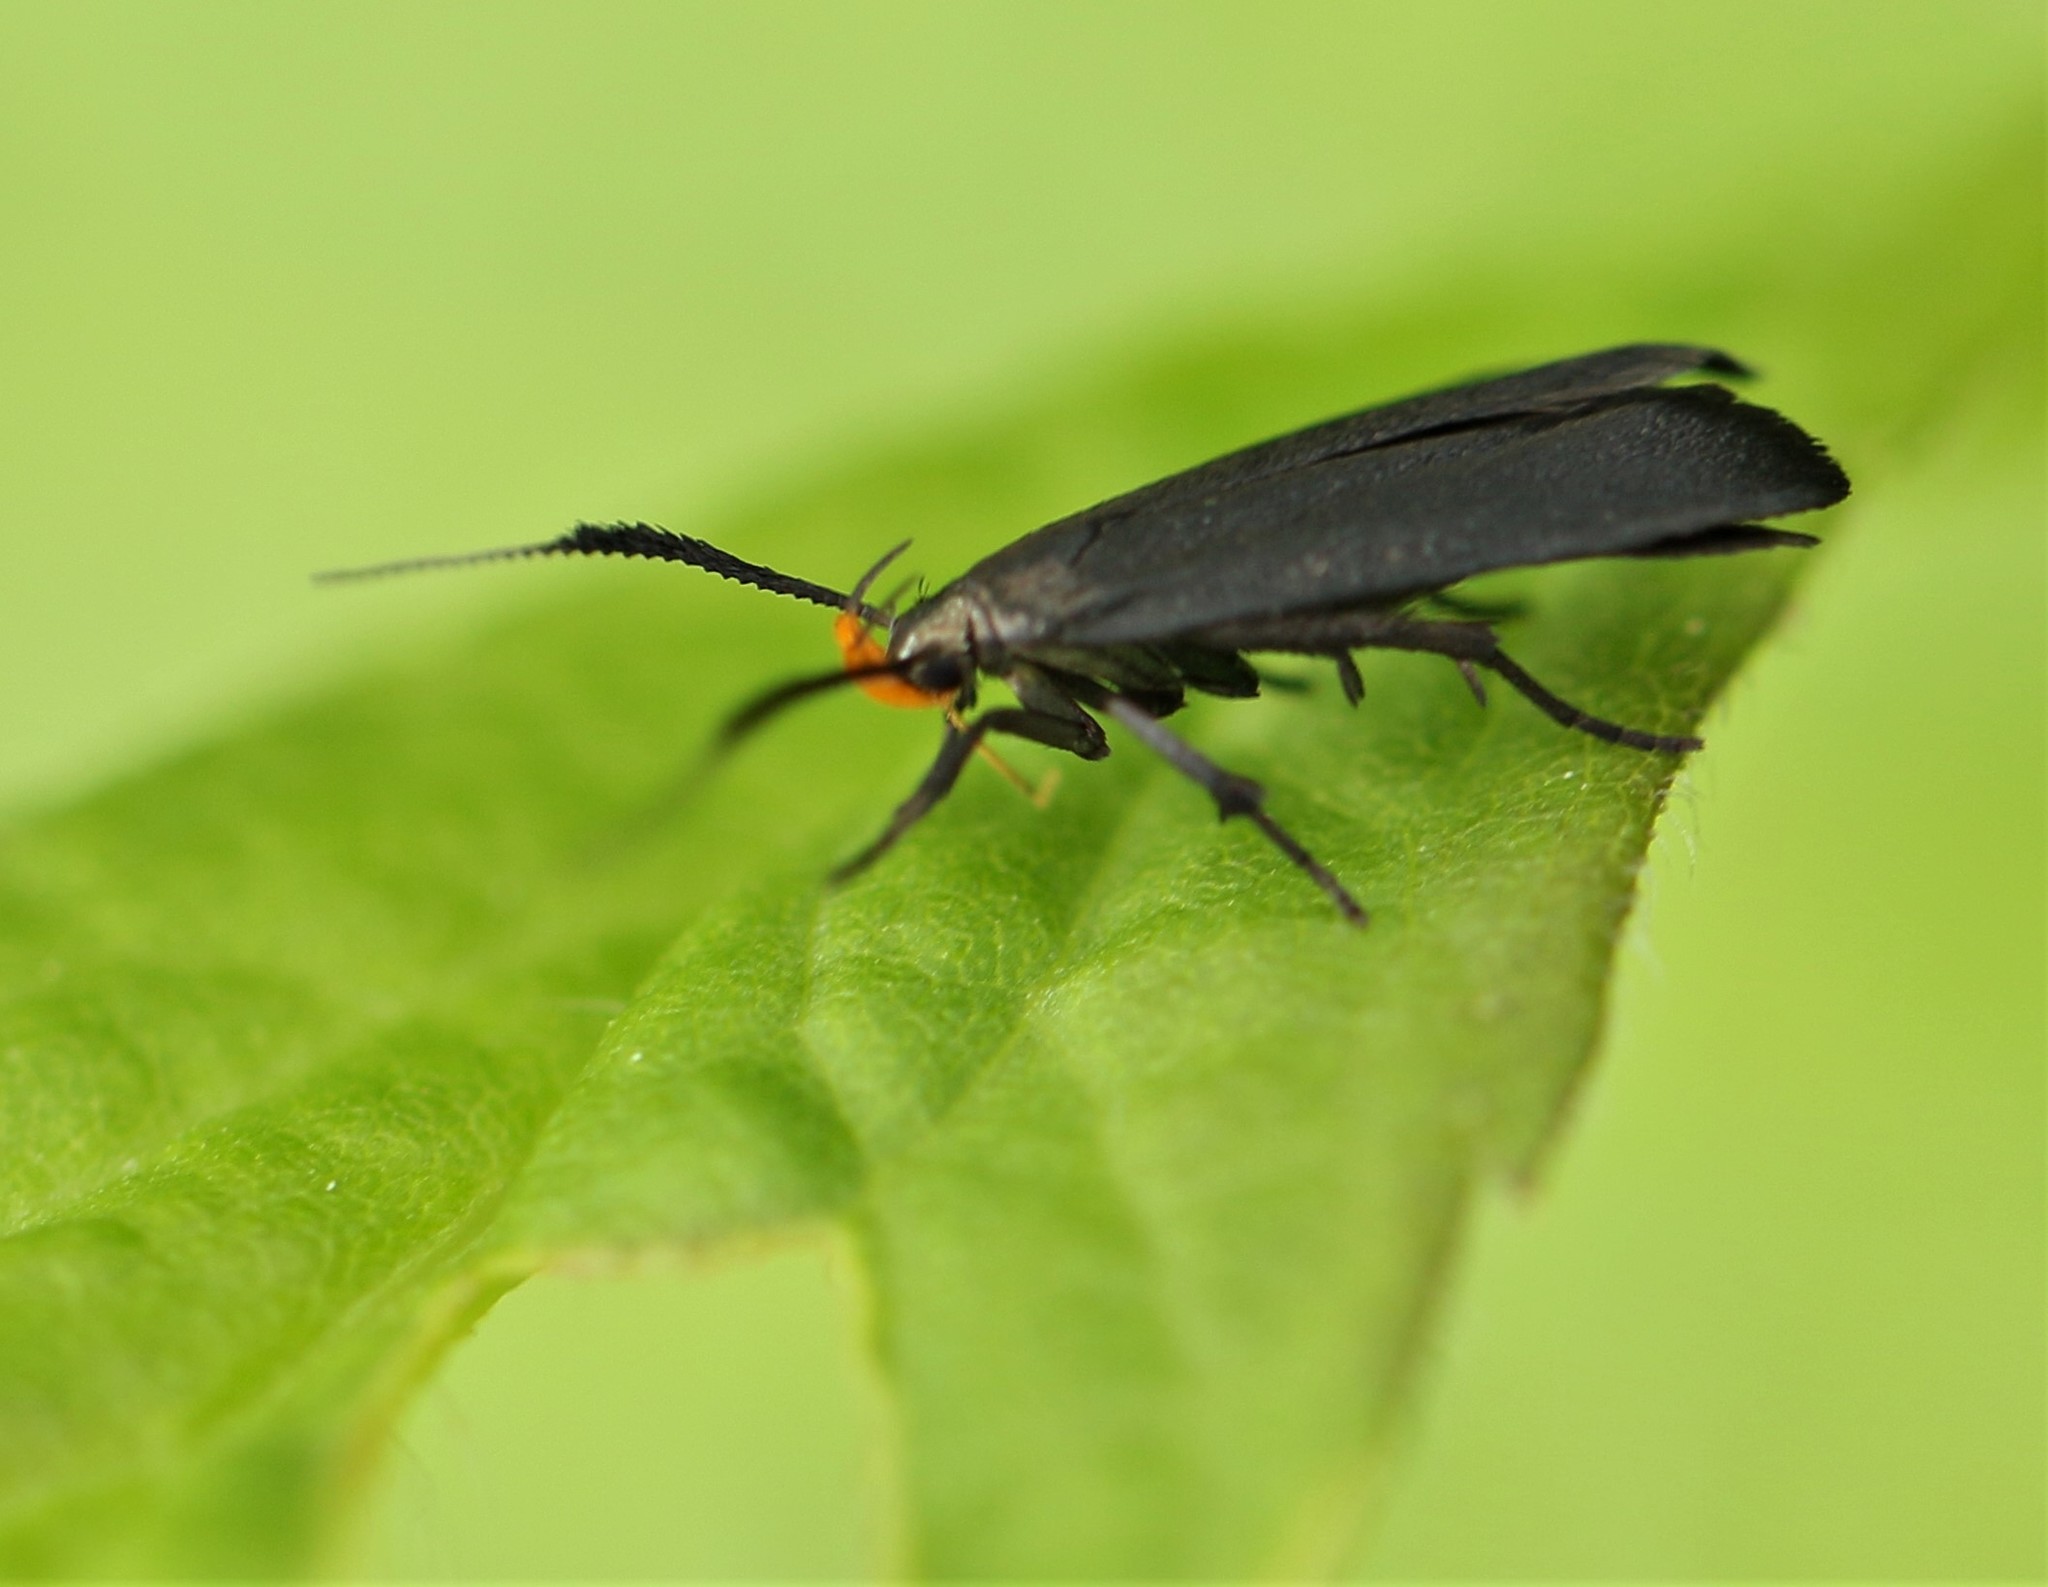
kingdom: Animalia
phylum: Arthropoda
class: Insecta
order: Lepidoptera
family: Gelechiidae
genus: Dichomeris
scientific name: Dichomeris nonstrigella
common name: Little devil moth
